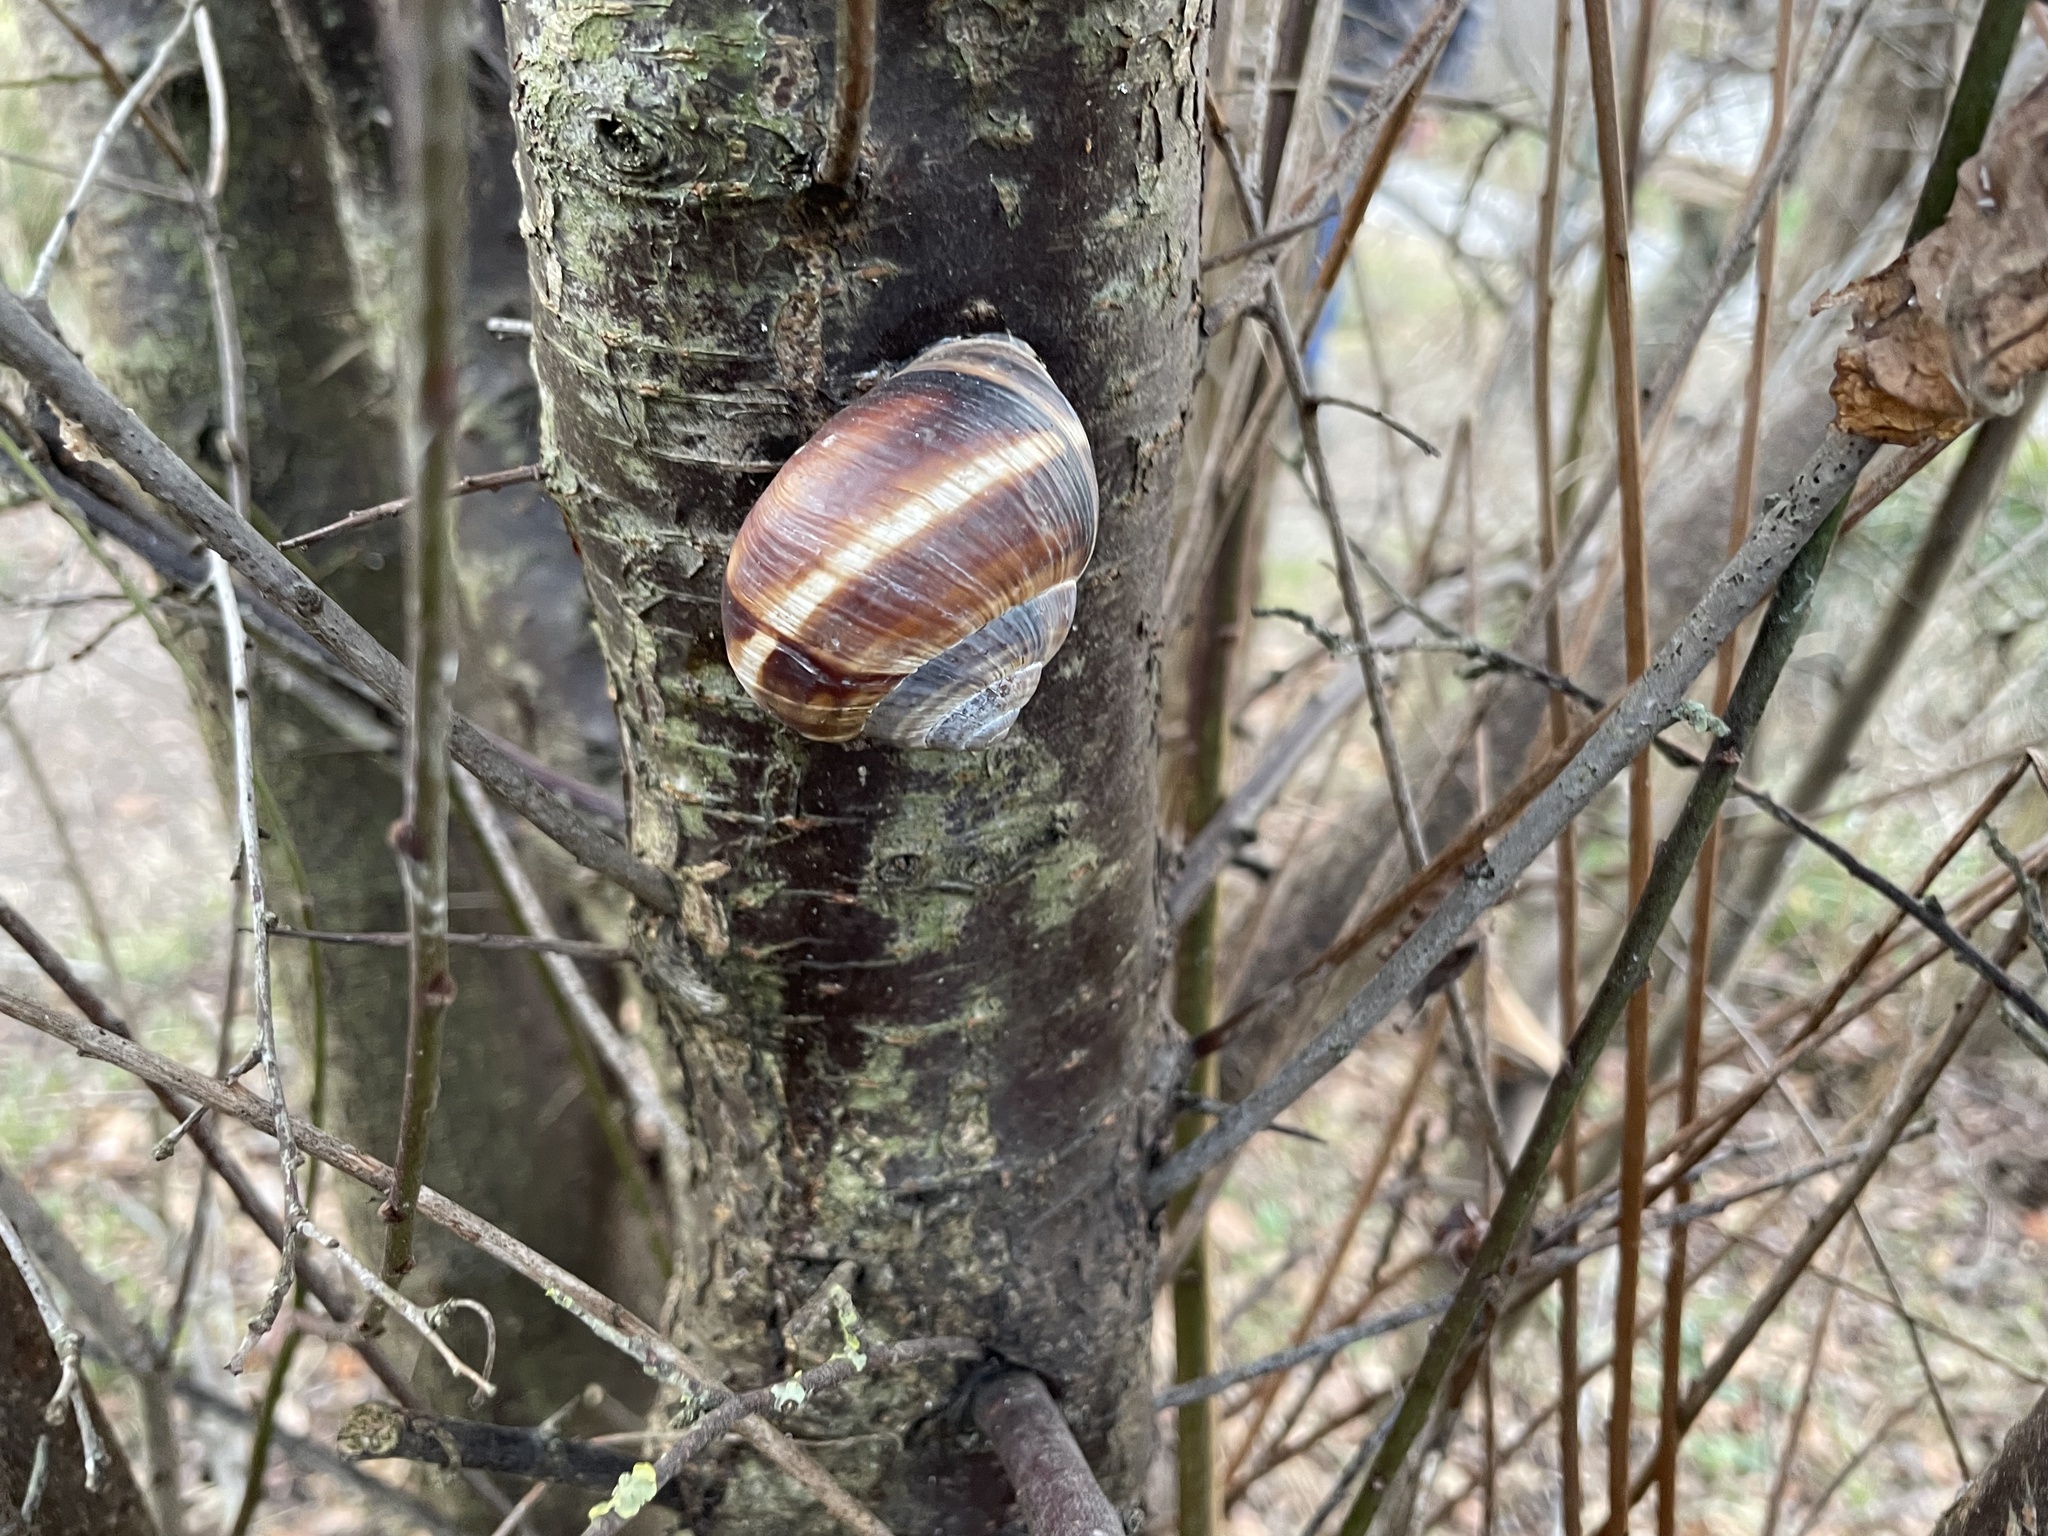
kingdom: Animalia
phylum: Mollusca
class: Gastropoda
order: Stylommatophora
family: Helicidae
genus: Helix
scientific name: Helix lucorum
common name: Turkish snail
